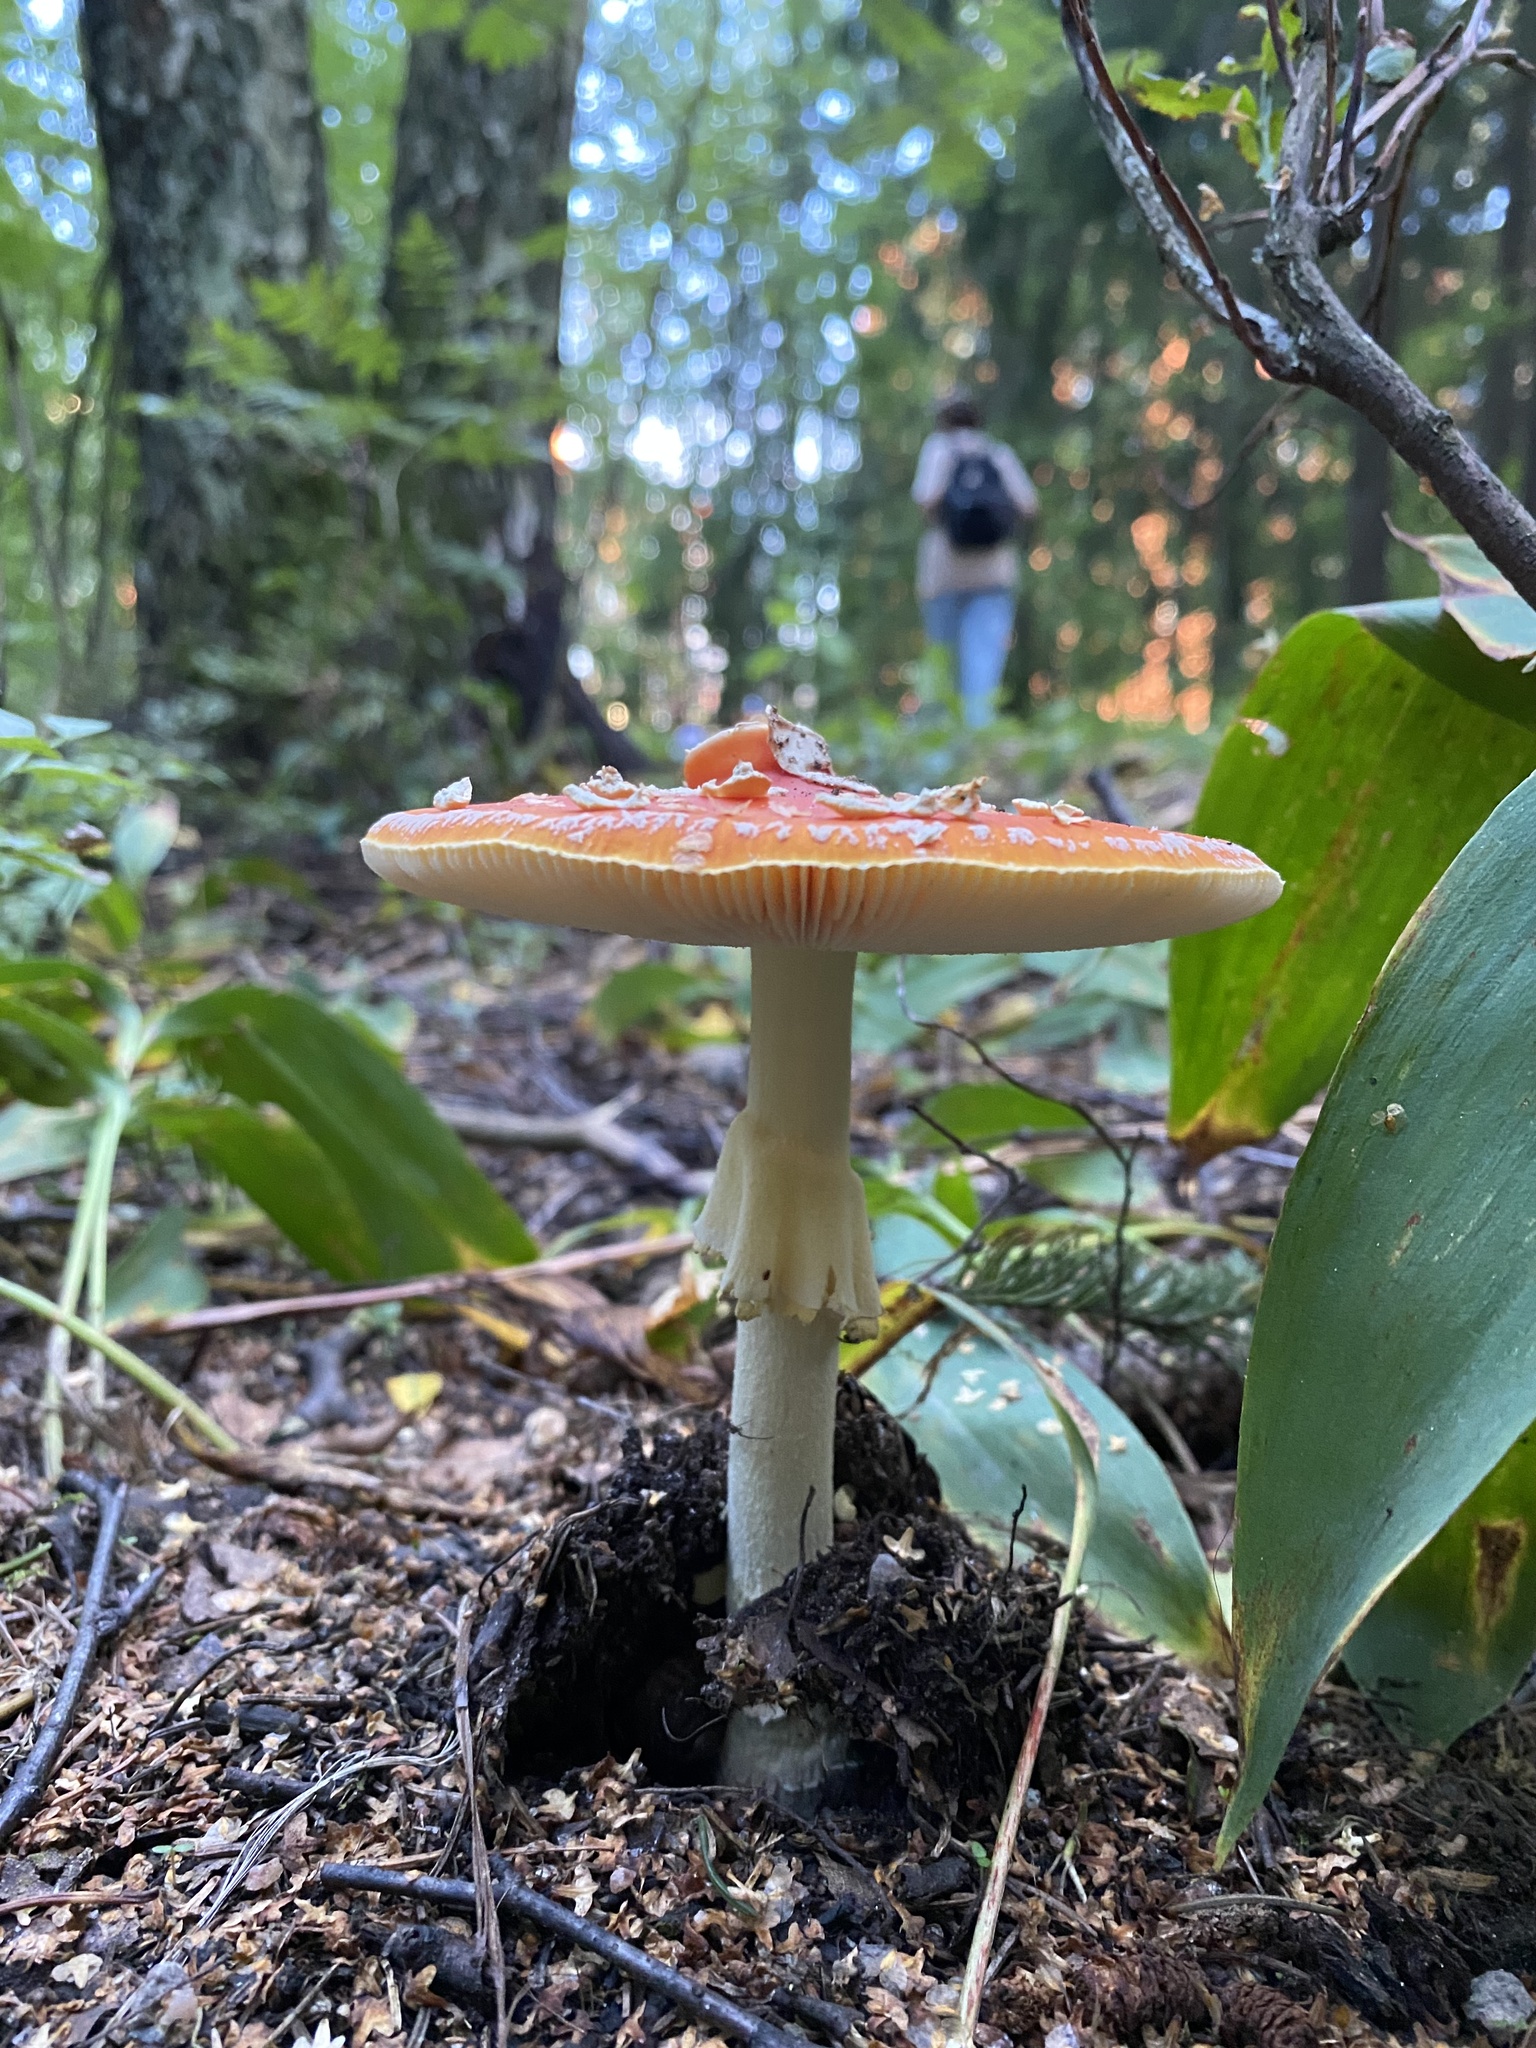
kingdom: Fungi
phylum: Basidiomycota
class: Agaricomycetes
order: Agaricales
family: Amanitaceae
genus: Amanita
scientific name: Amanita muscaria
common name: Fly agaric
